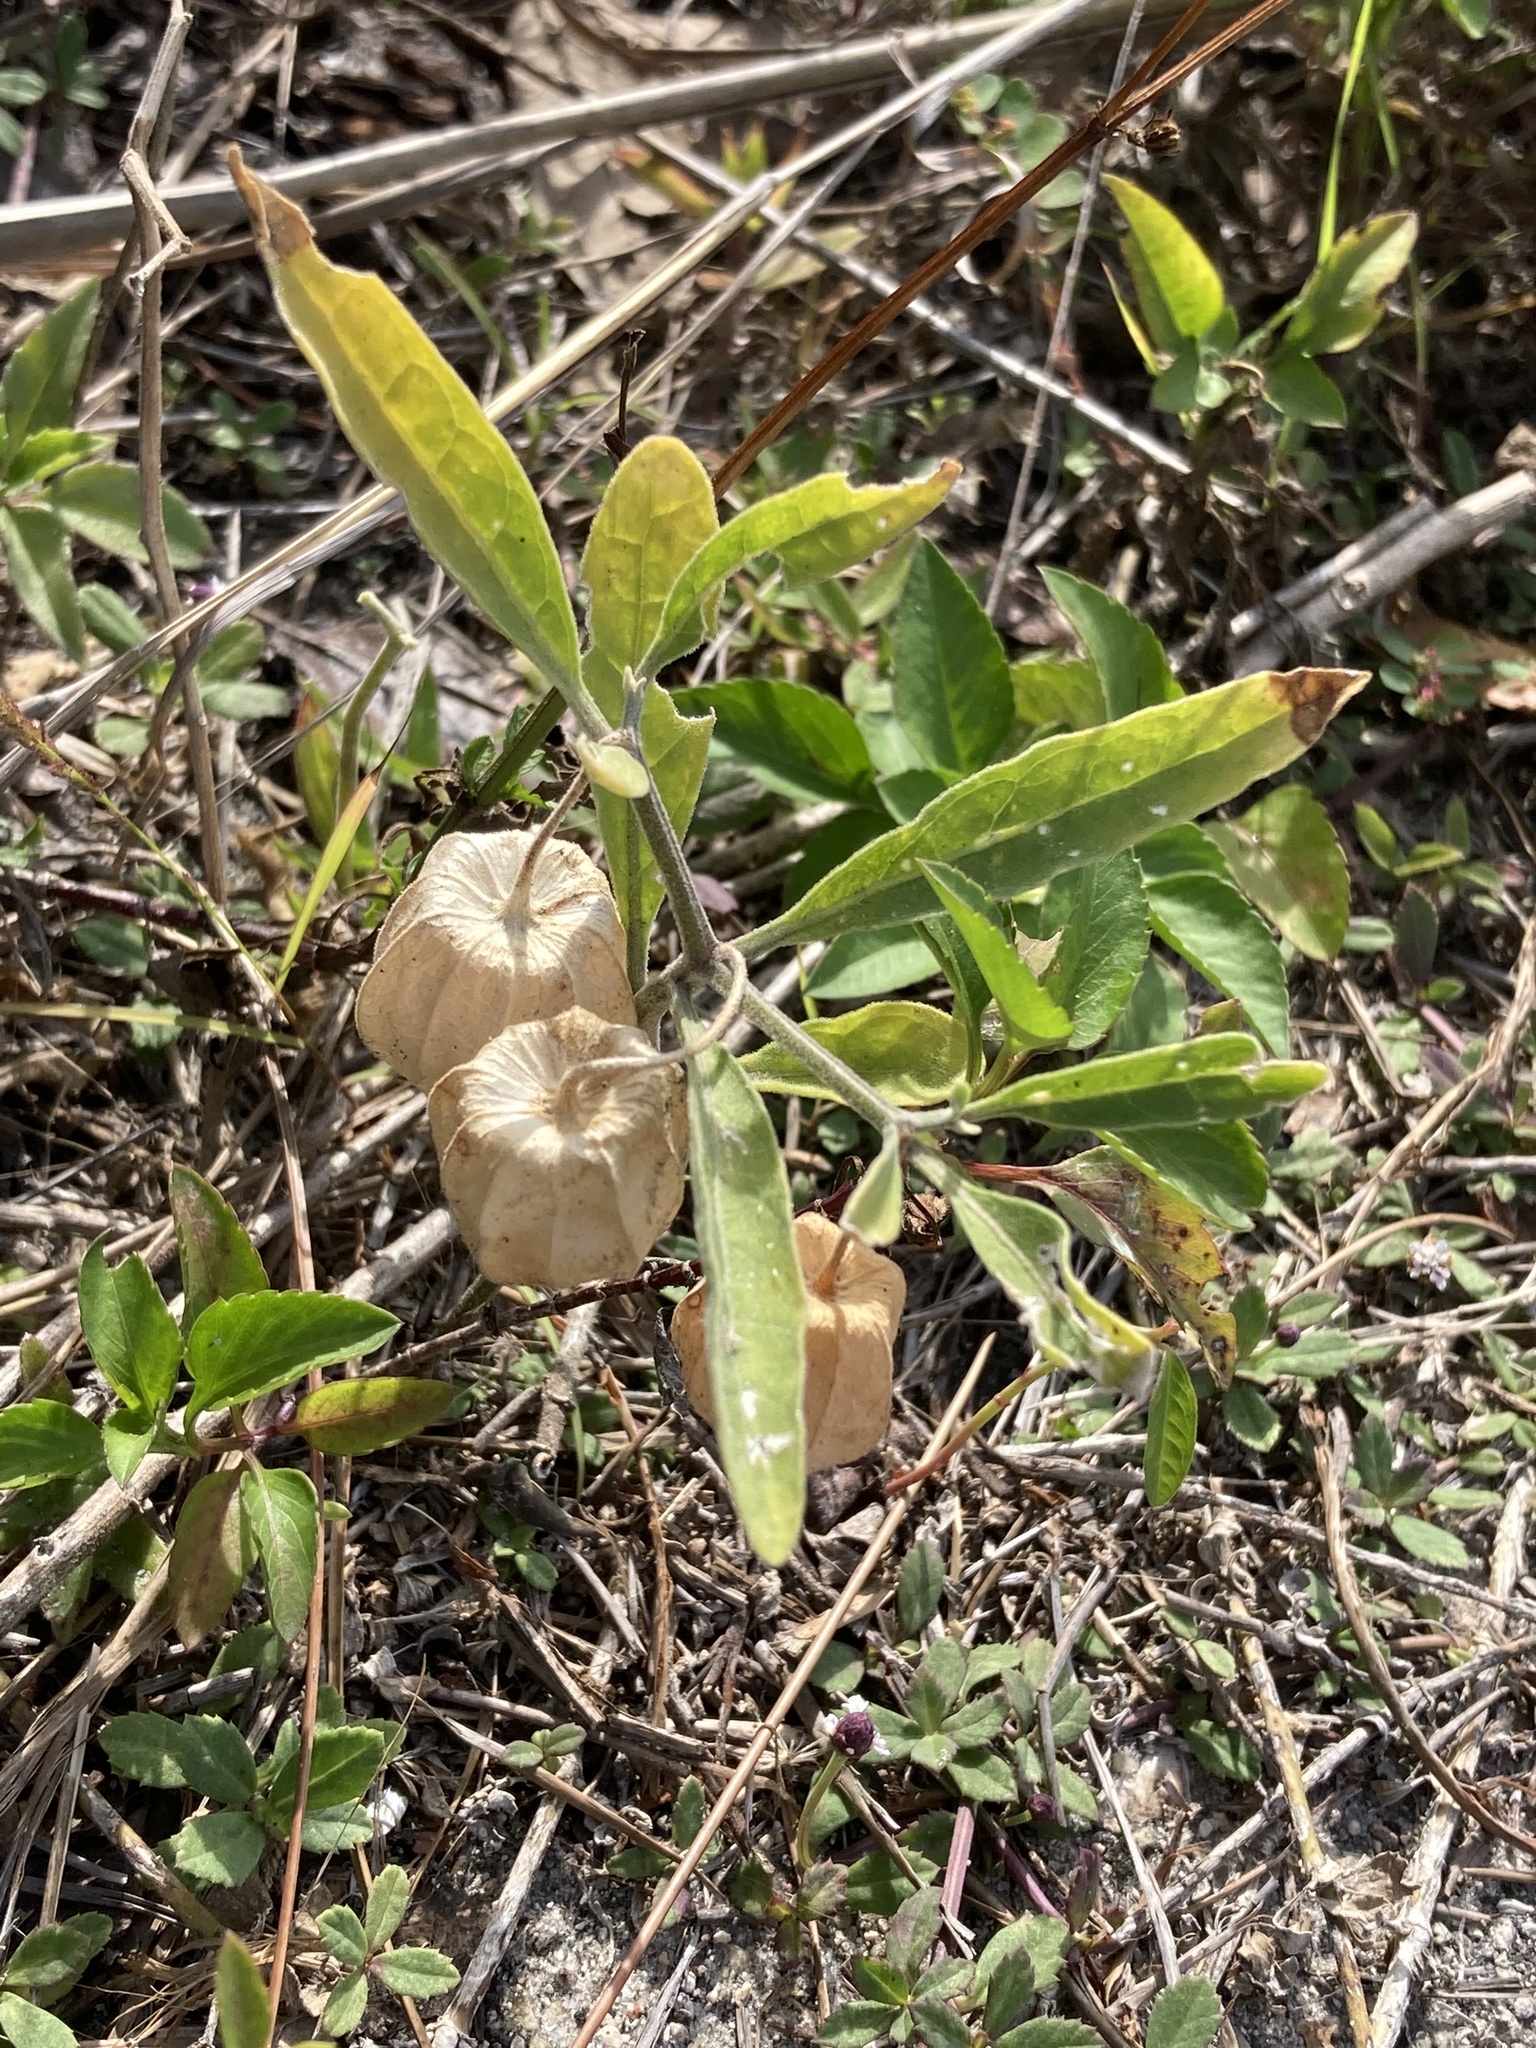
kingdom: Plantae
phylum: Tracheophyta
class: Magnoliopsida
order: Solanales
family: Solanaceae
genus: Physalis
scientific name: Physalis walteri
